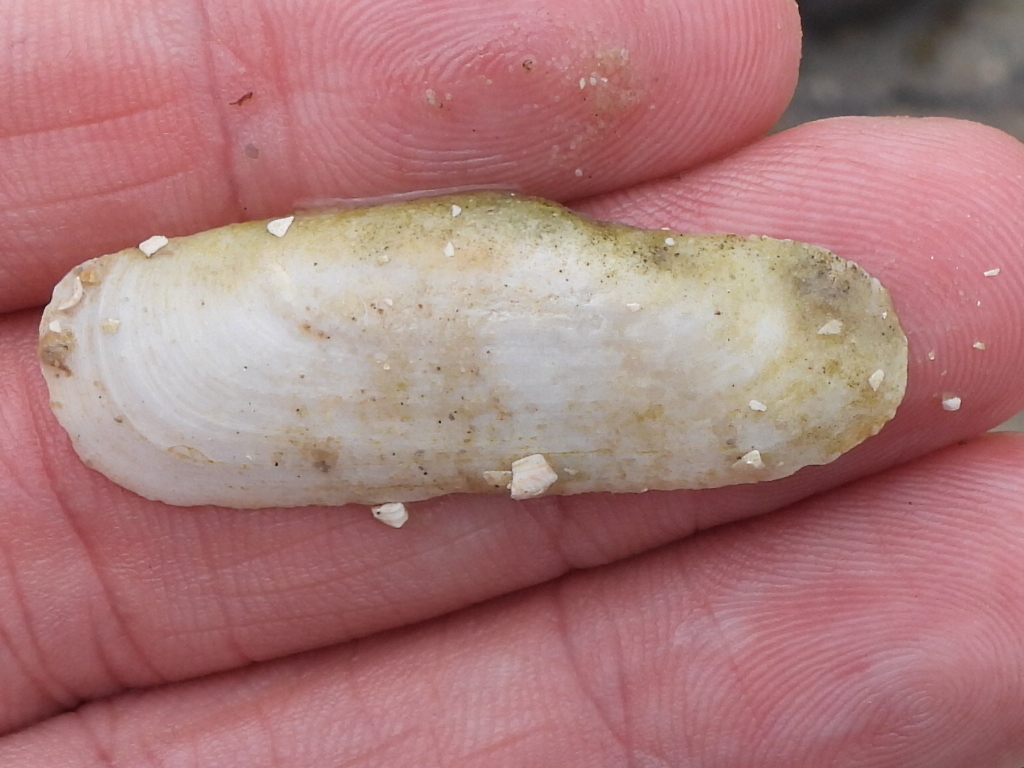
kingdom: Animalia
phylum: Mollusca
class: Bivalvia
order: Cardiida
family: Solecurtidae
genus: Tagelus
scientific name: Tagelus plebeius
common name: Stout tagelus
